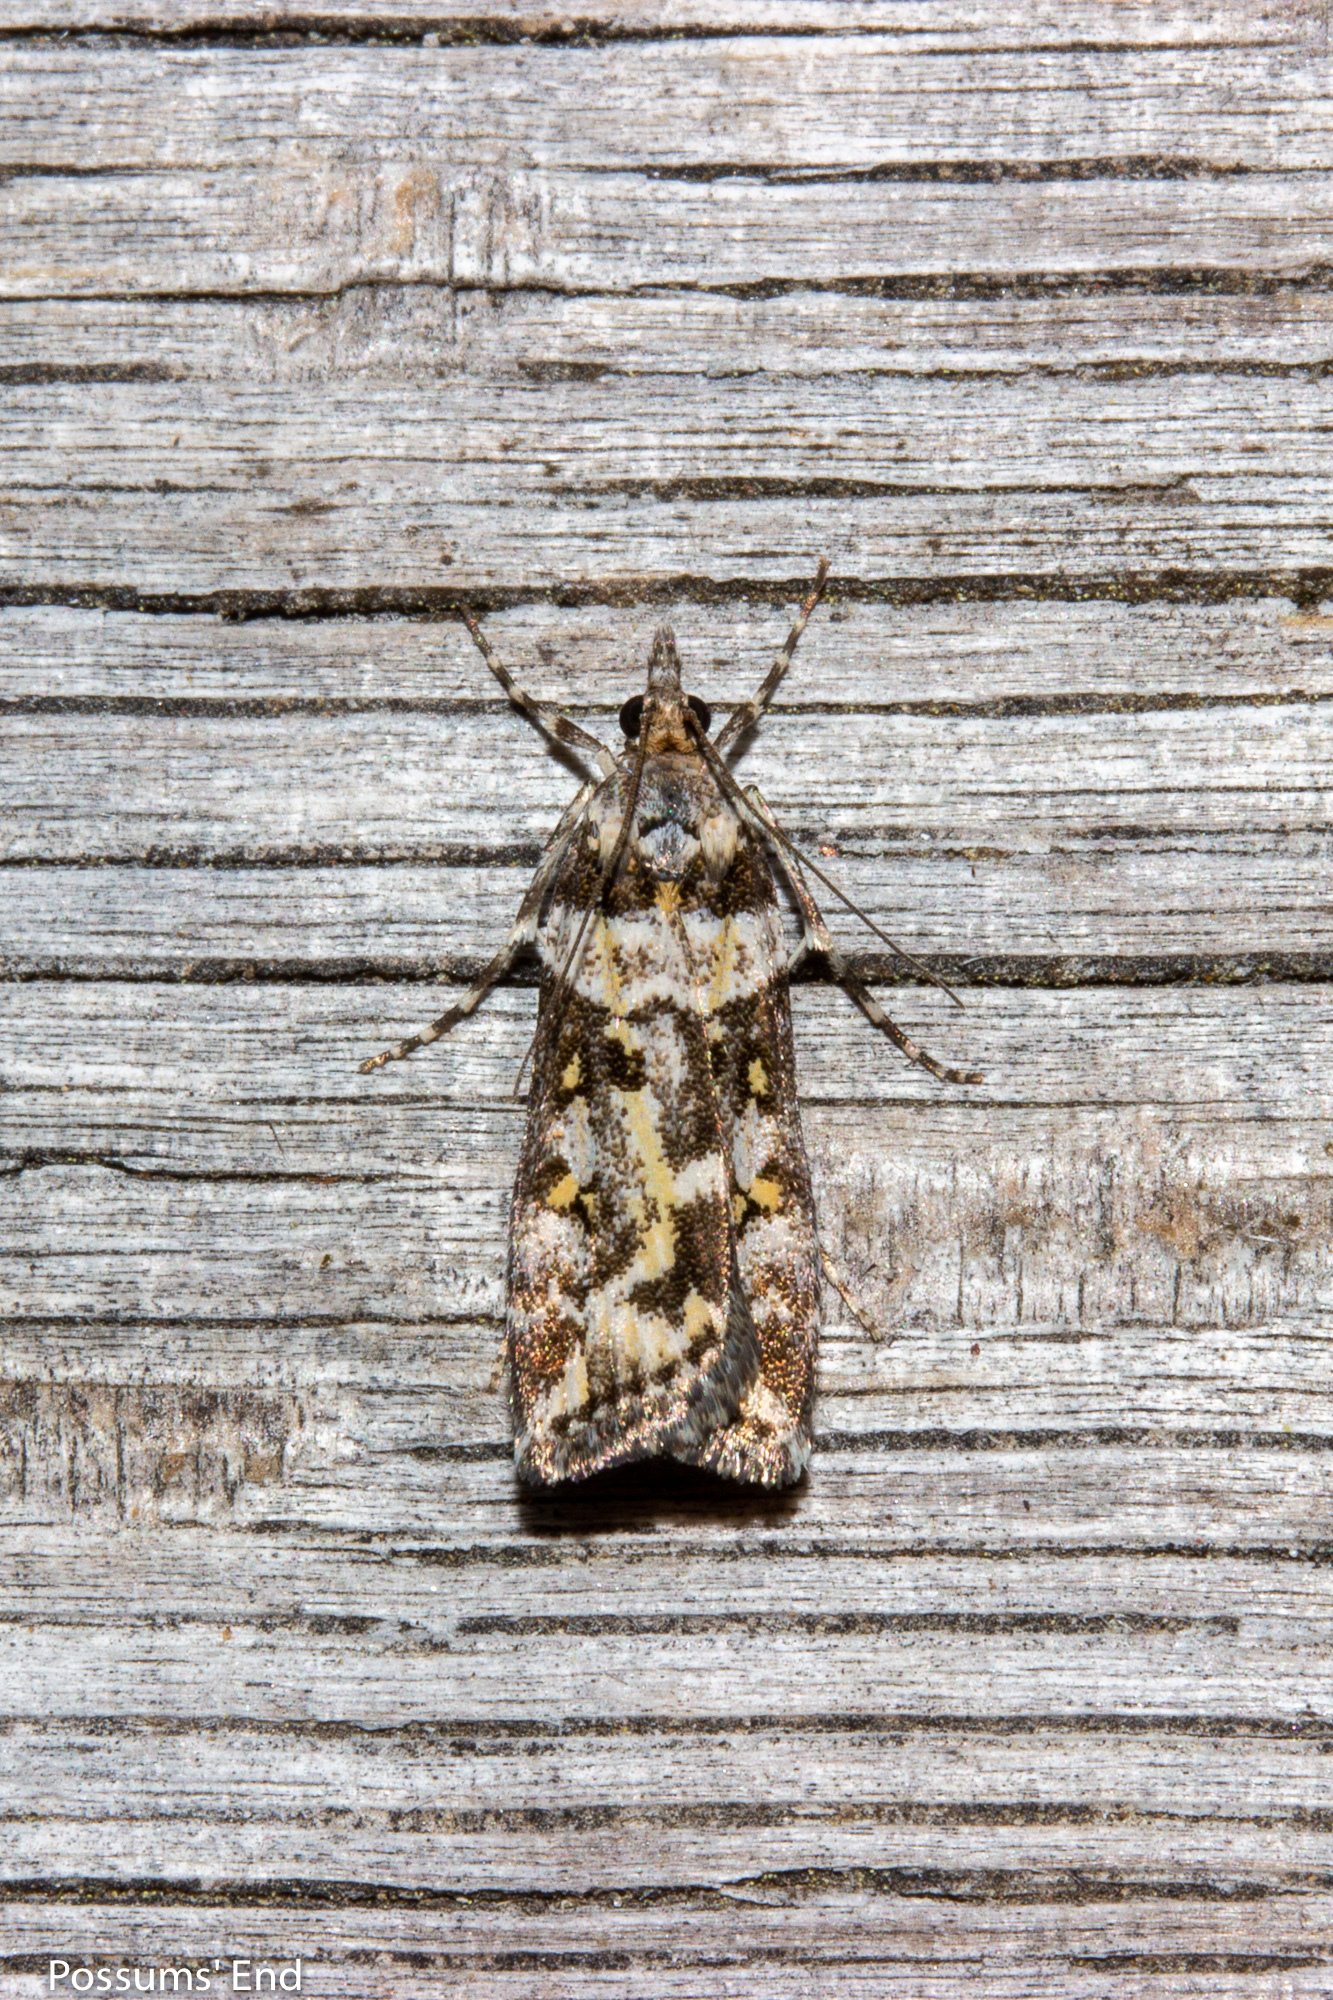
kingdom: Animalia
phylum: Arthropoda
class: Insecta
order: Lepidoptera
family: Crambidae
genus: Eudonia
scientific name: Eudonia diphtheralis
